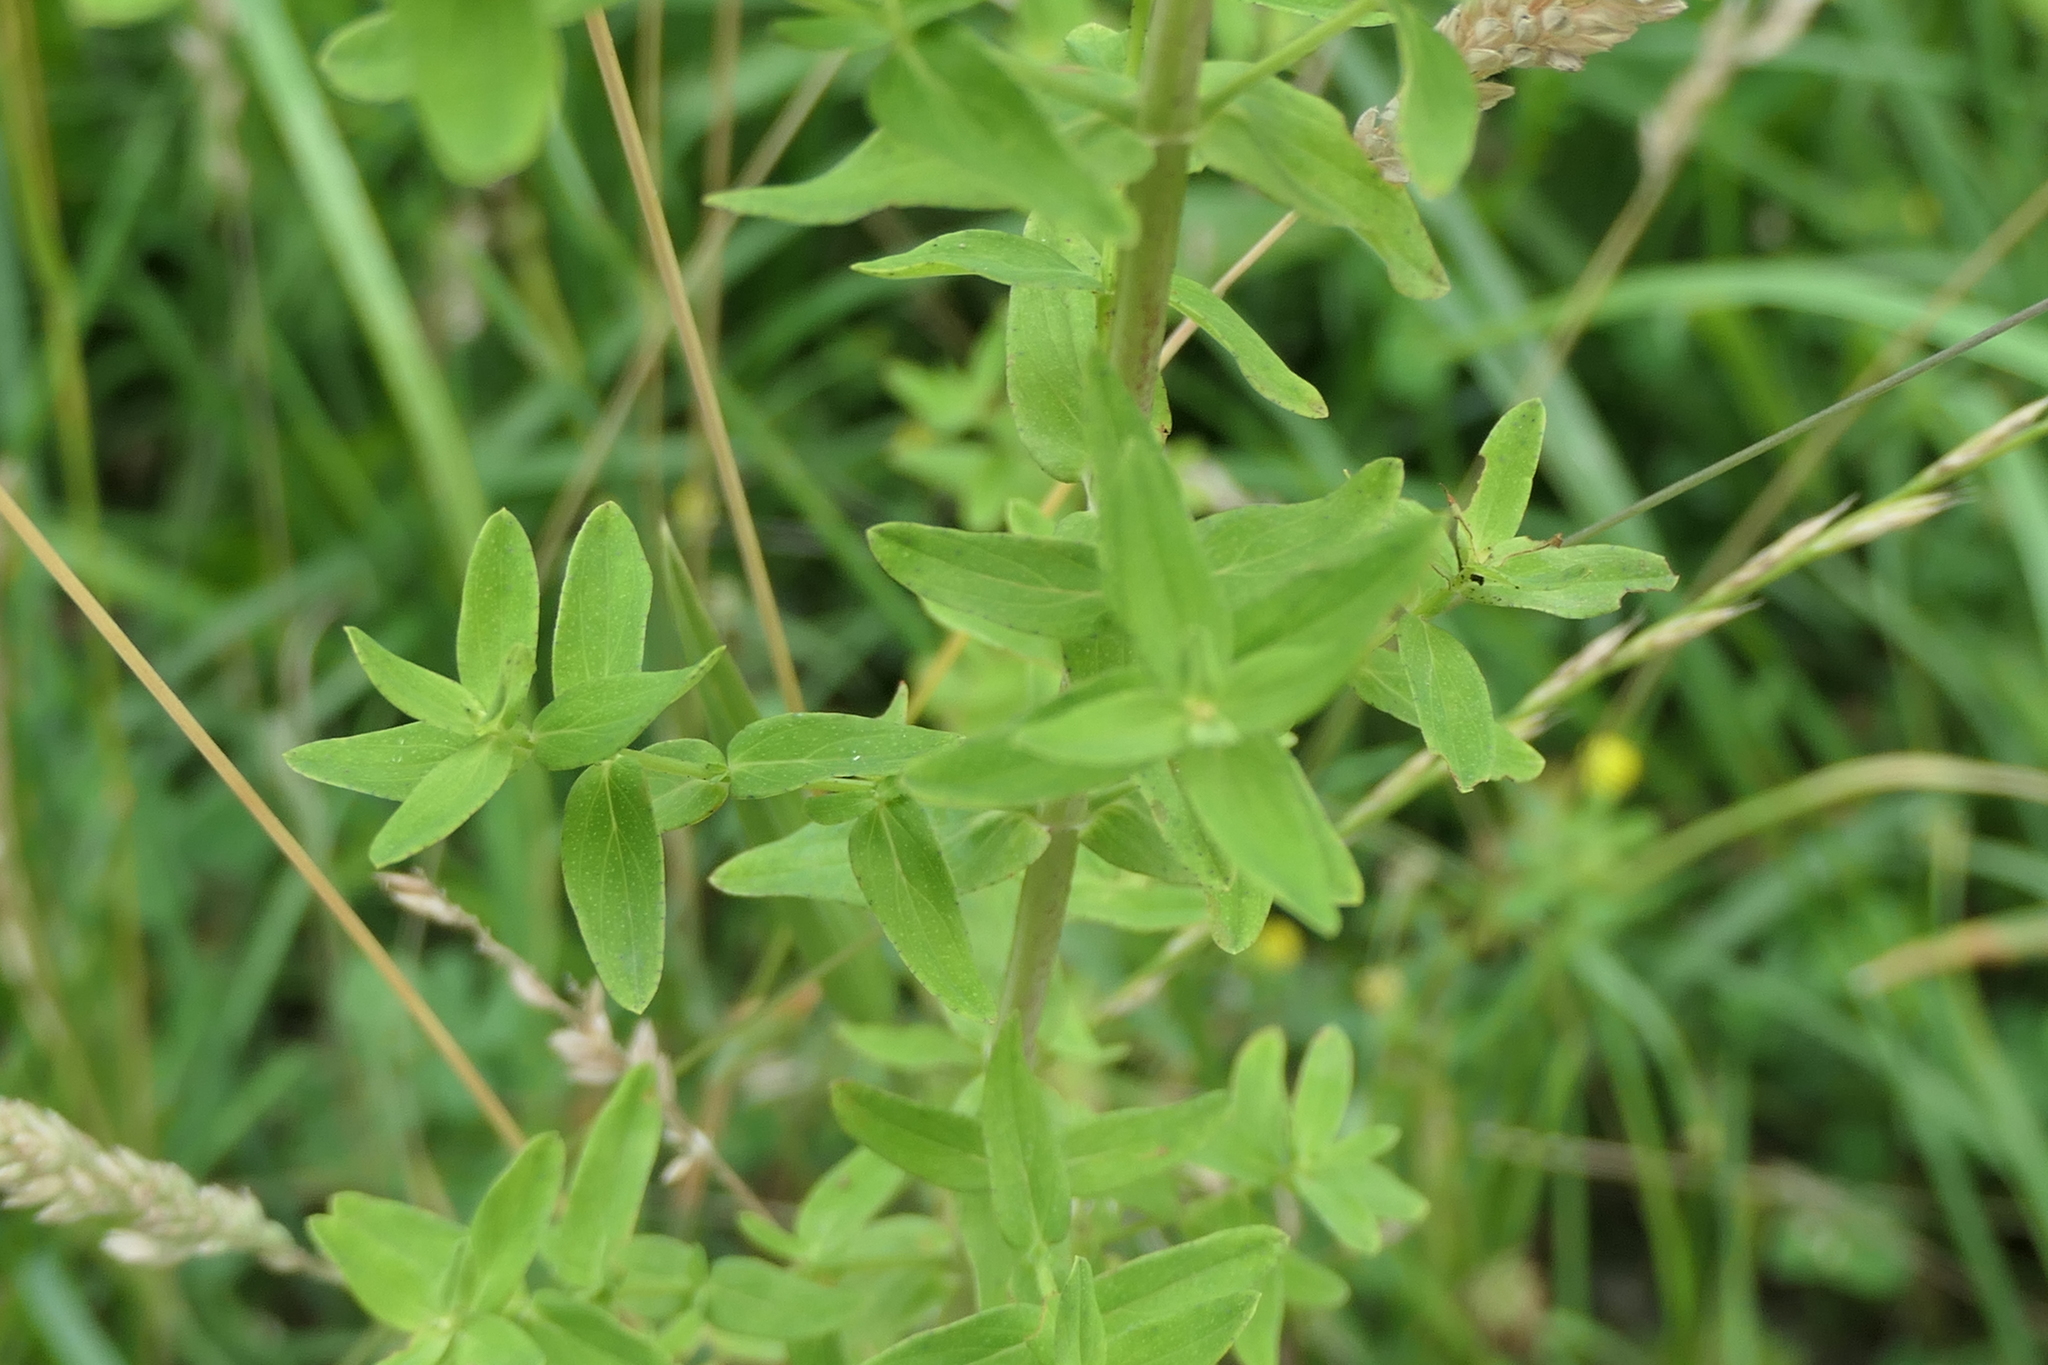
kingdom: Plantae
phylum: Tracheophyta
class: Magnoliopsida
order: Malpighiales
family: Hypericaceae
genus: Hypericum
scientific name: Hypericum perforatum
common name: Common st. johnswort
